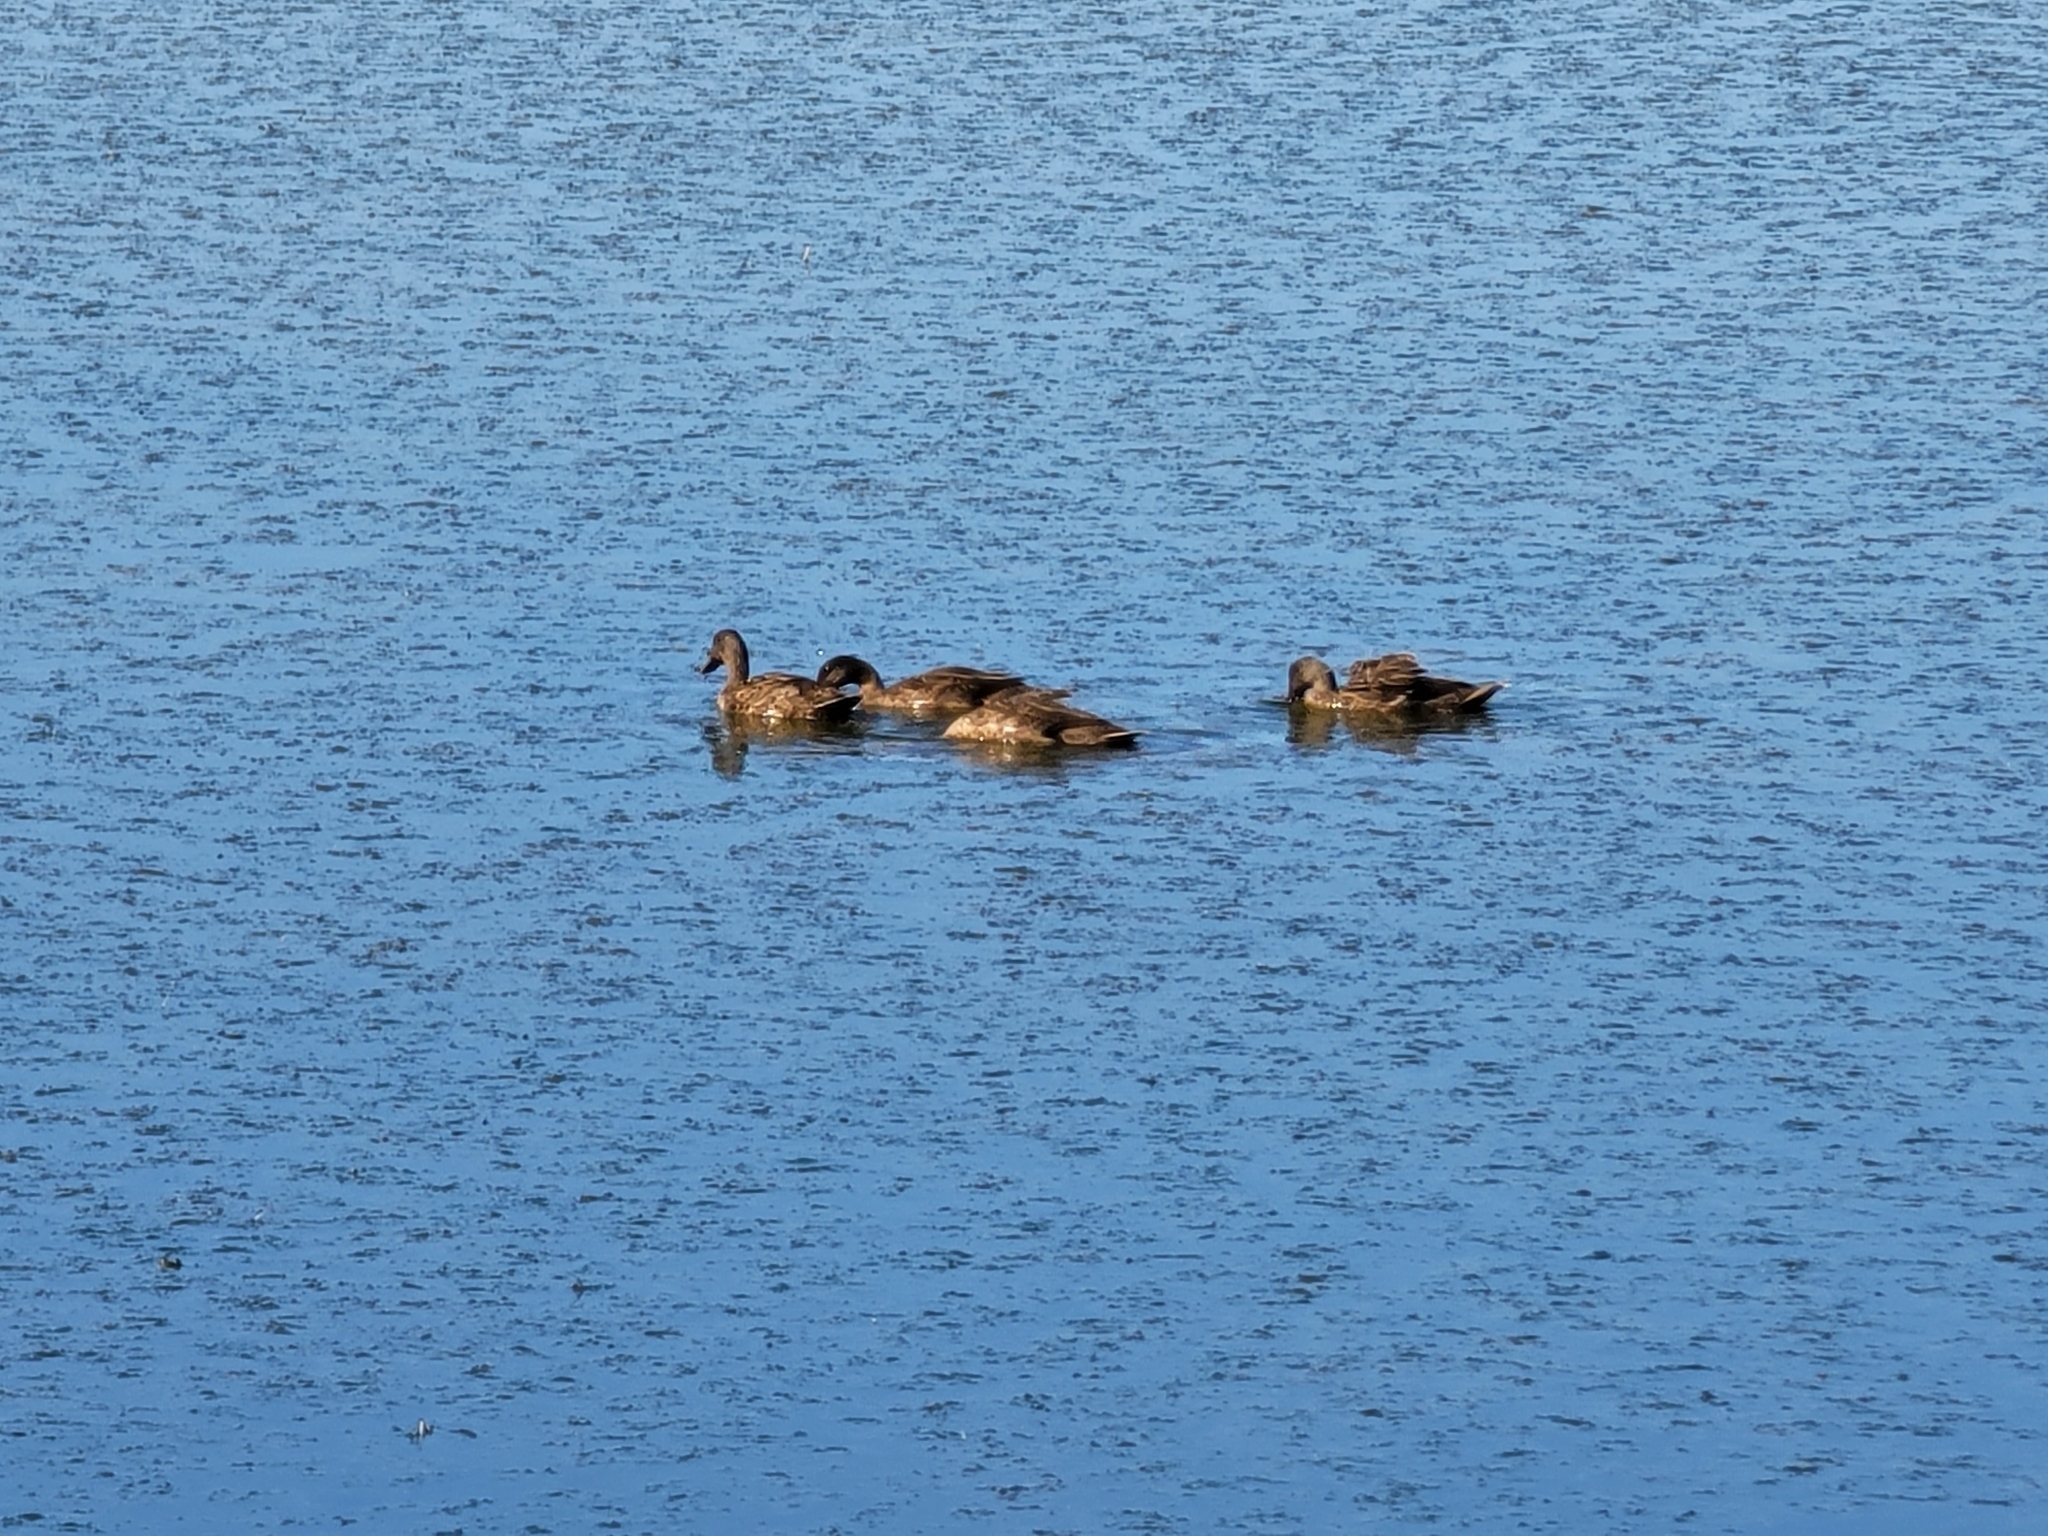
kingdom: Animalia
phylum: Chordata
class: Aves
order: Anseriformes
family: Anatidae
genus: Anas
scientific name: Anas platyrhynchos
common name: Mallard
